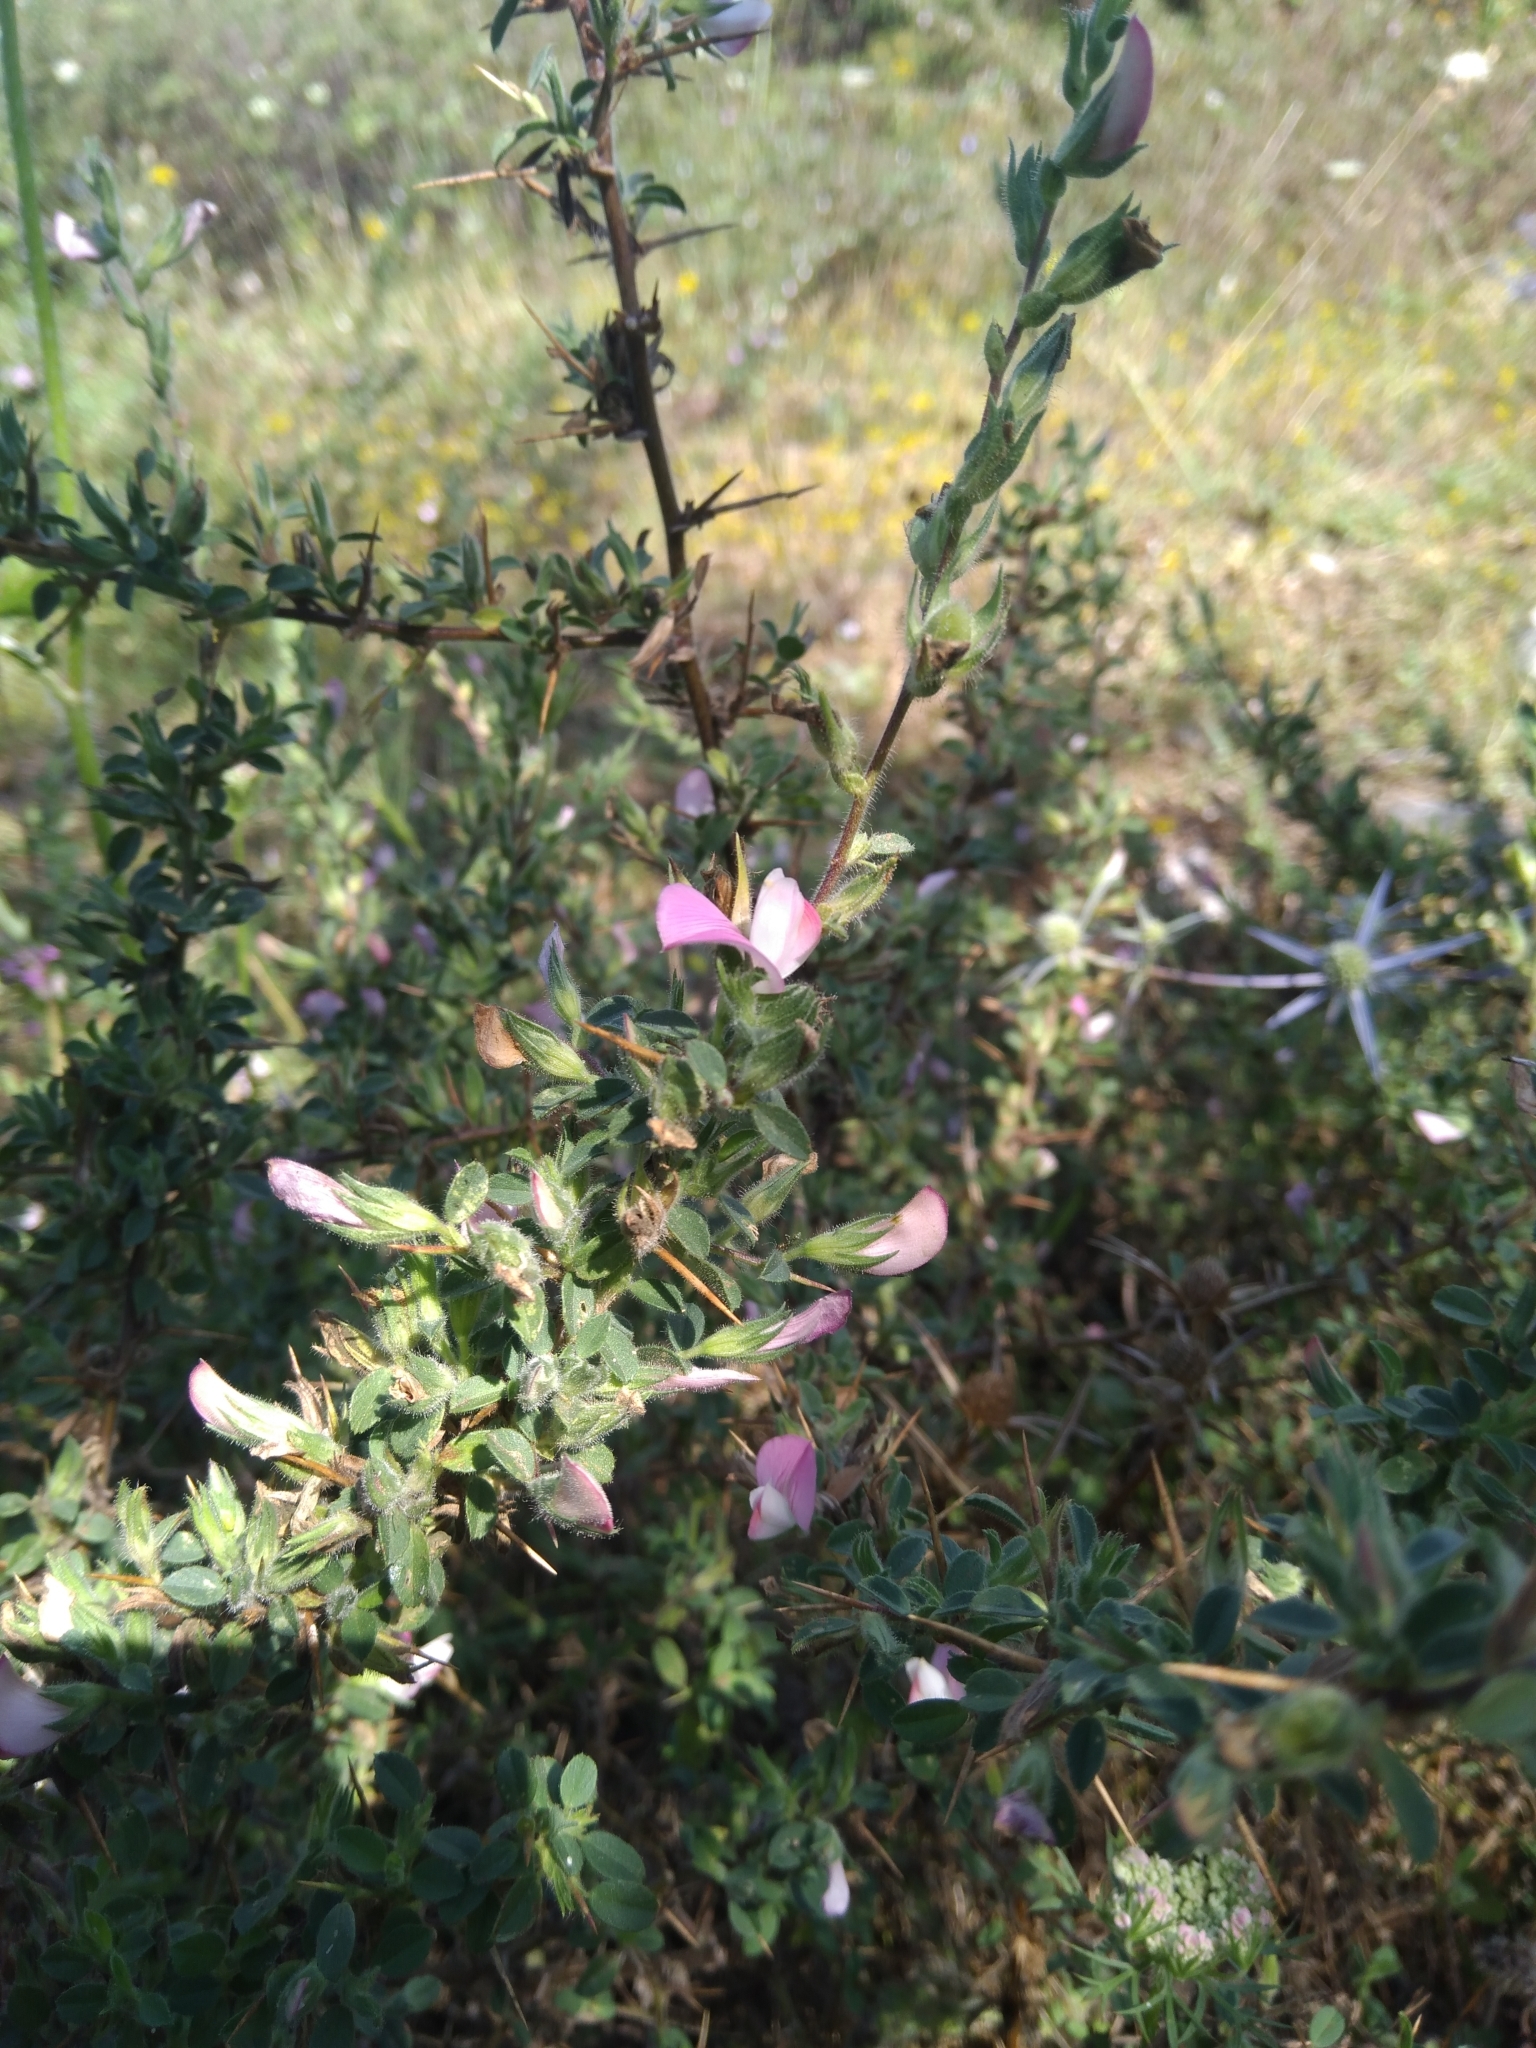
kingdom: Plantae
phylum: Tracheophyta
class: Magnoliopsida
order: Fabales
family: Fabaceae
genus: Ononis
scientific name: Ononis spinosa
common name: Spiny restharrow
